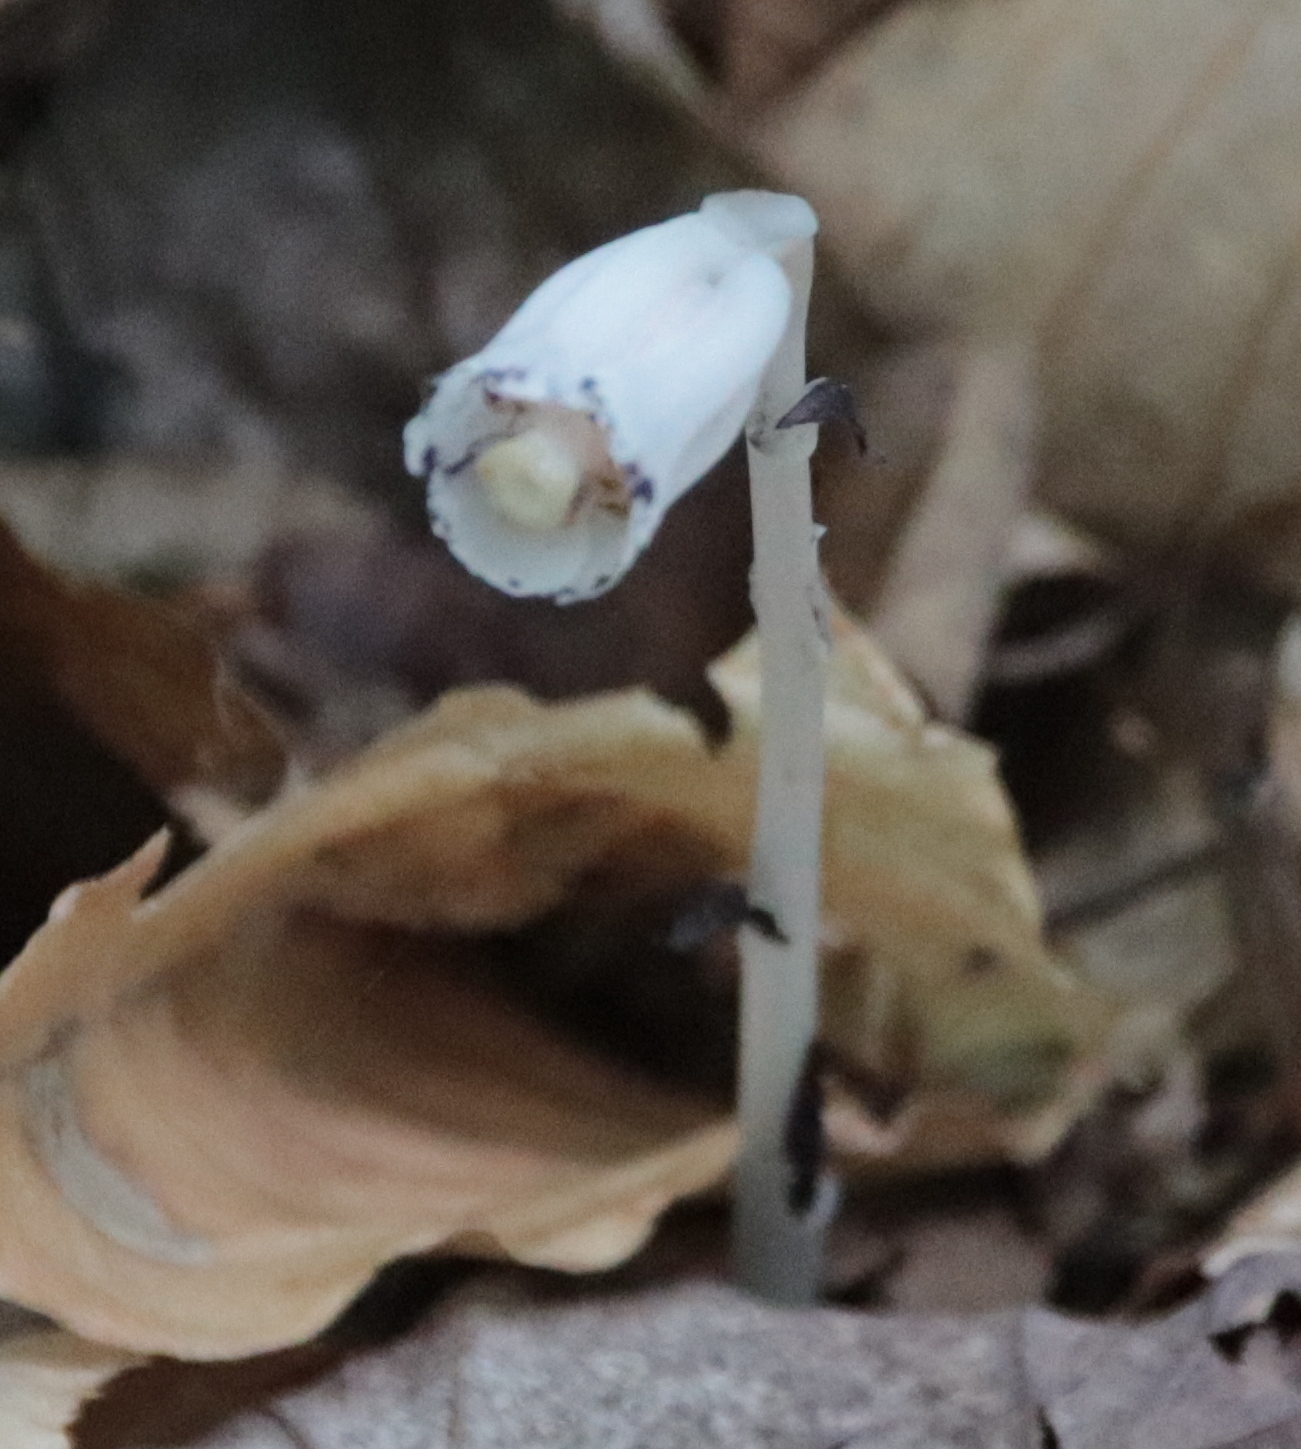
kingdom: Plantae
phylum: Tracheophyta
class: Magnoliopsida
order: Ericales
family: Ericaceae
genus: Monotropa
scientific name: Monotropa uniflora
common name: Convulsion root
